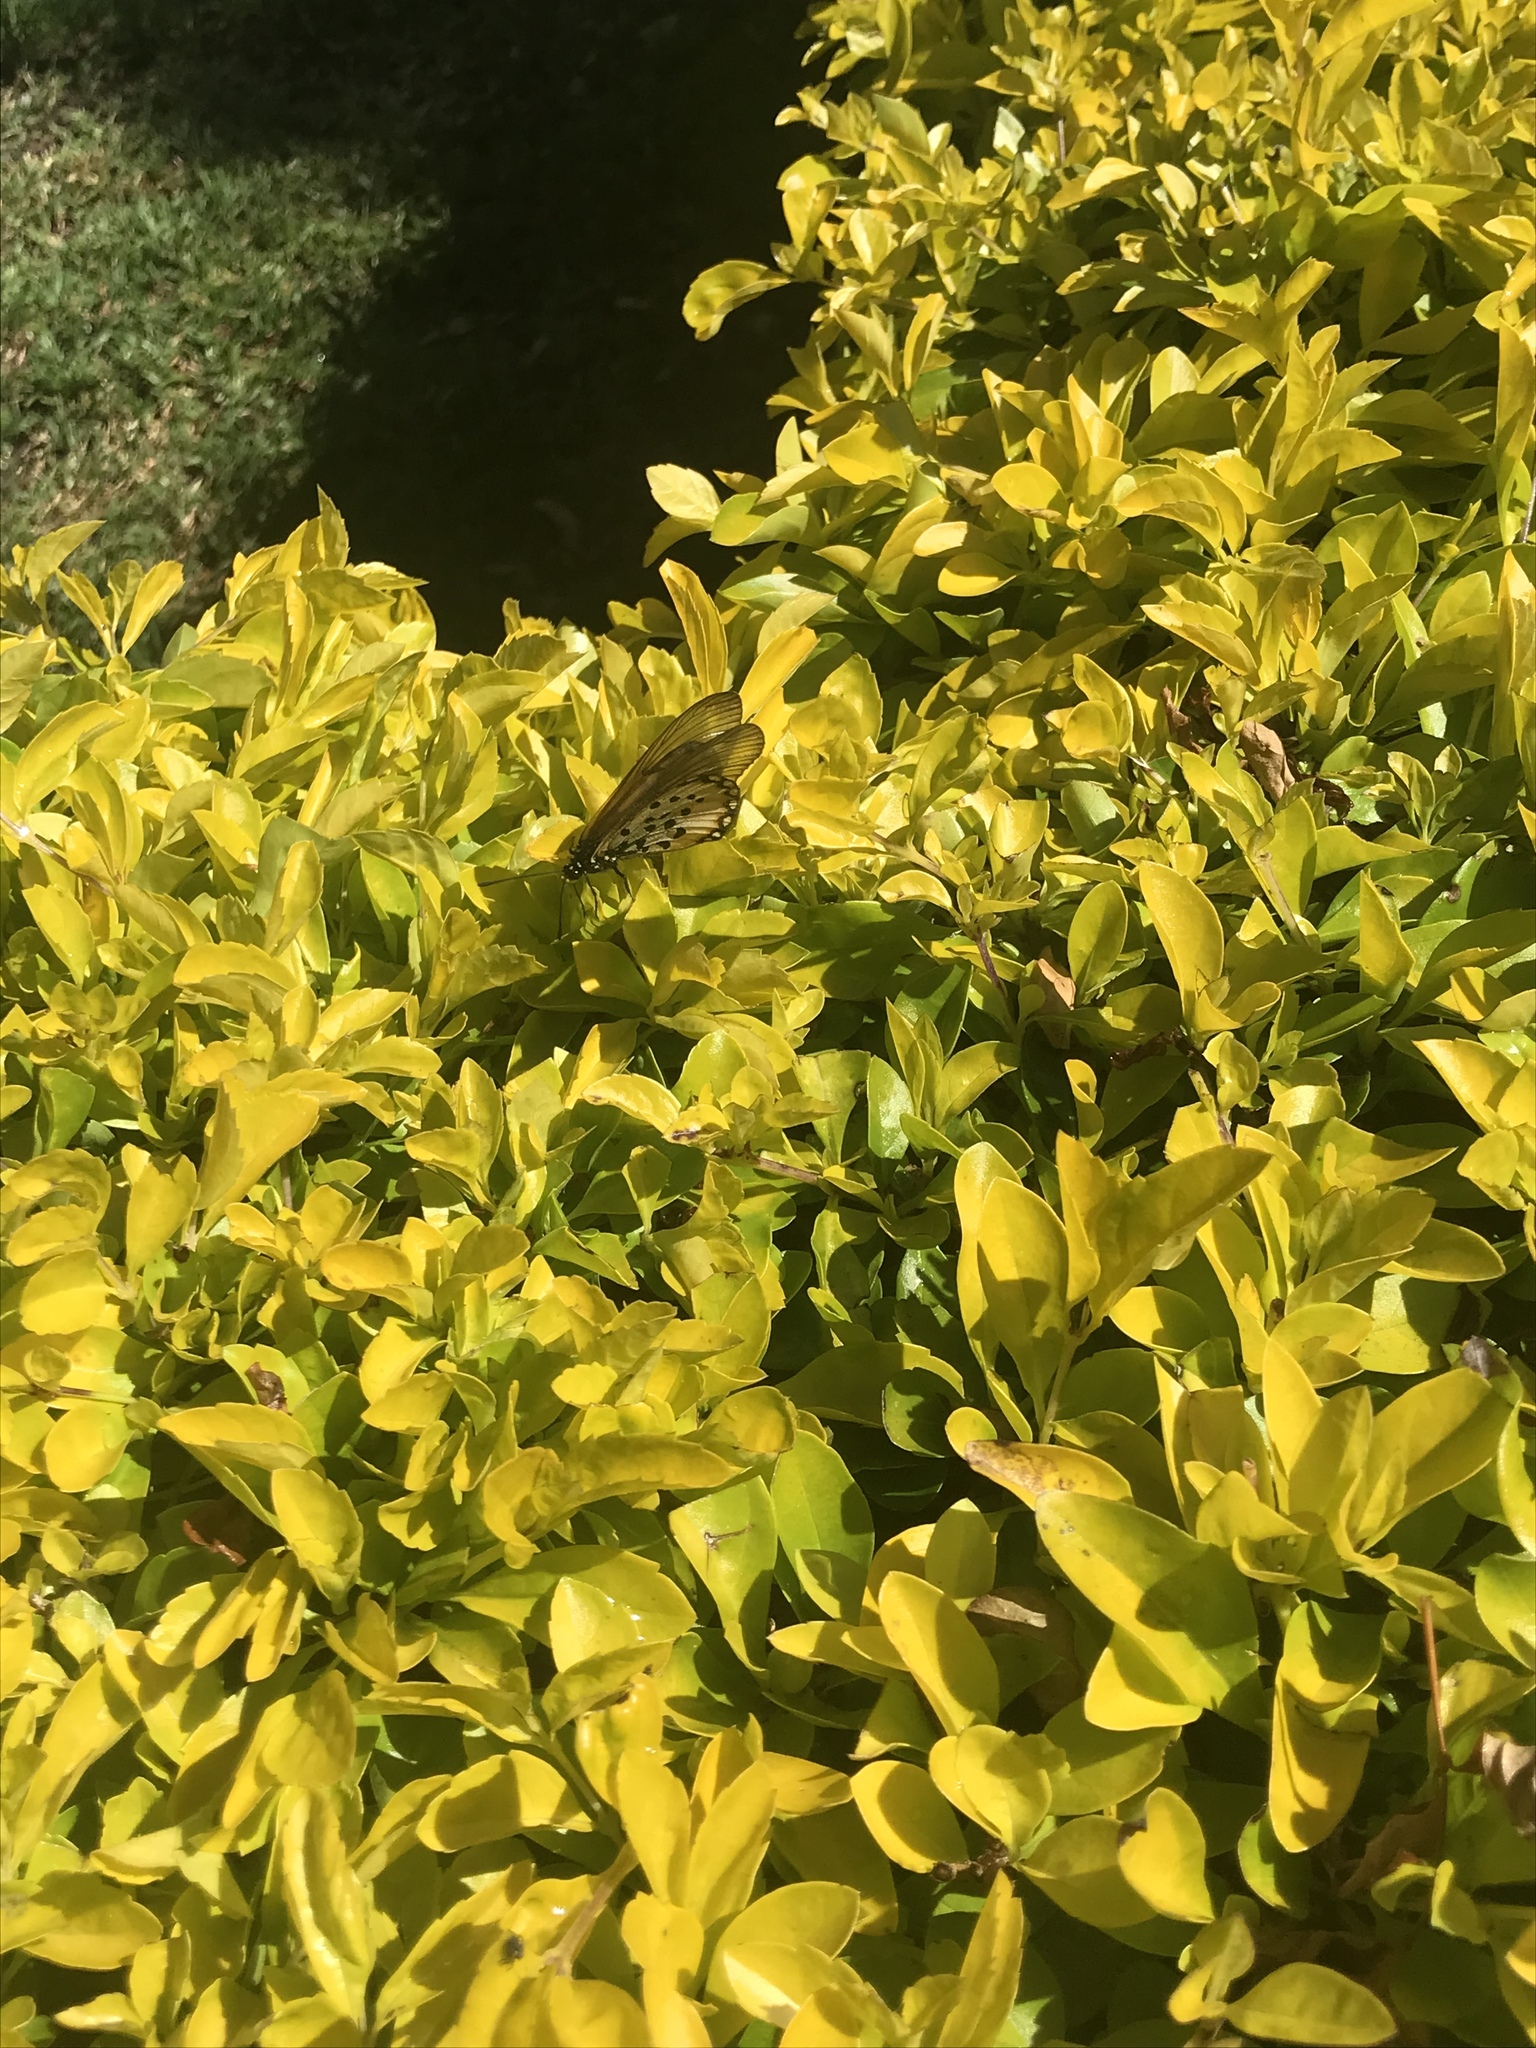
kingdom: Animalia
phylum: Arthropoda
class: Insecta
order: Lepidoptera
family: Nymphalidae
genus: Acraea
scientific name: Acraea horta
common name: Garden acraea
